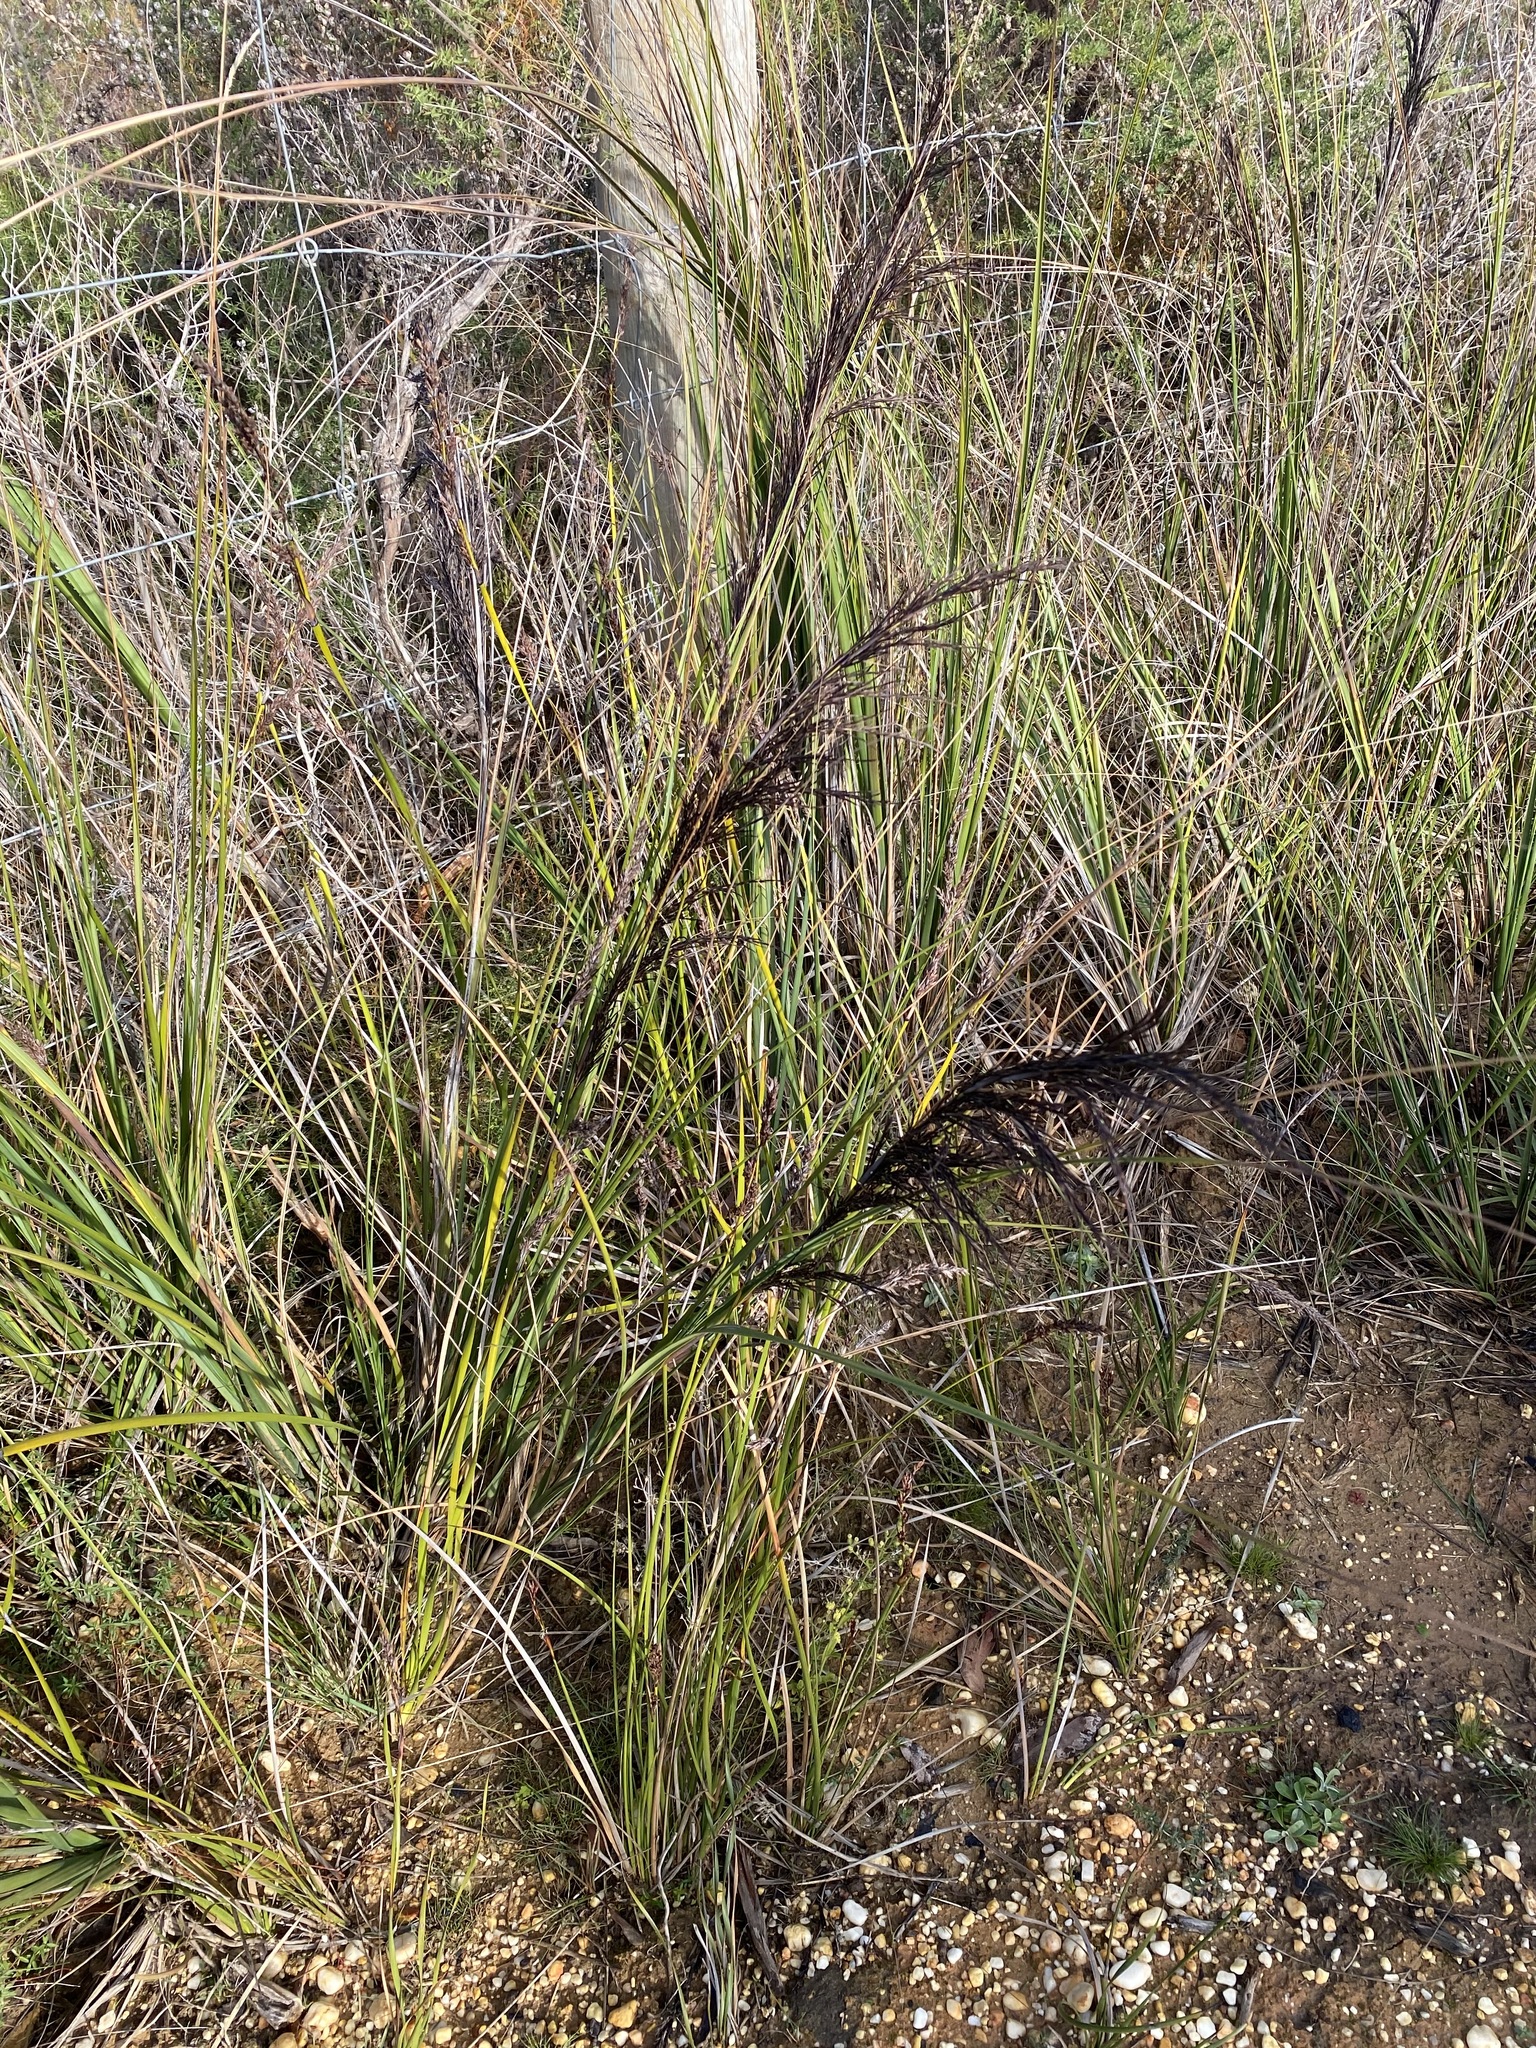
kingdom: Plantae
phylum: Tracheophyta
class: Liliopsida
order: Poales
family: Cyperaceae
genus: Gahnia
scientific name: Gahnia radula
